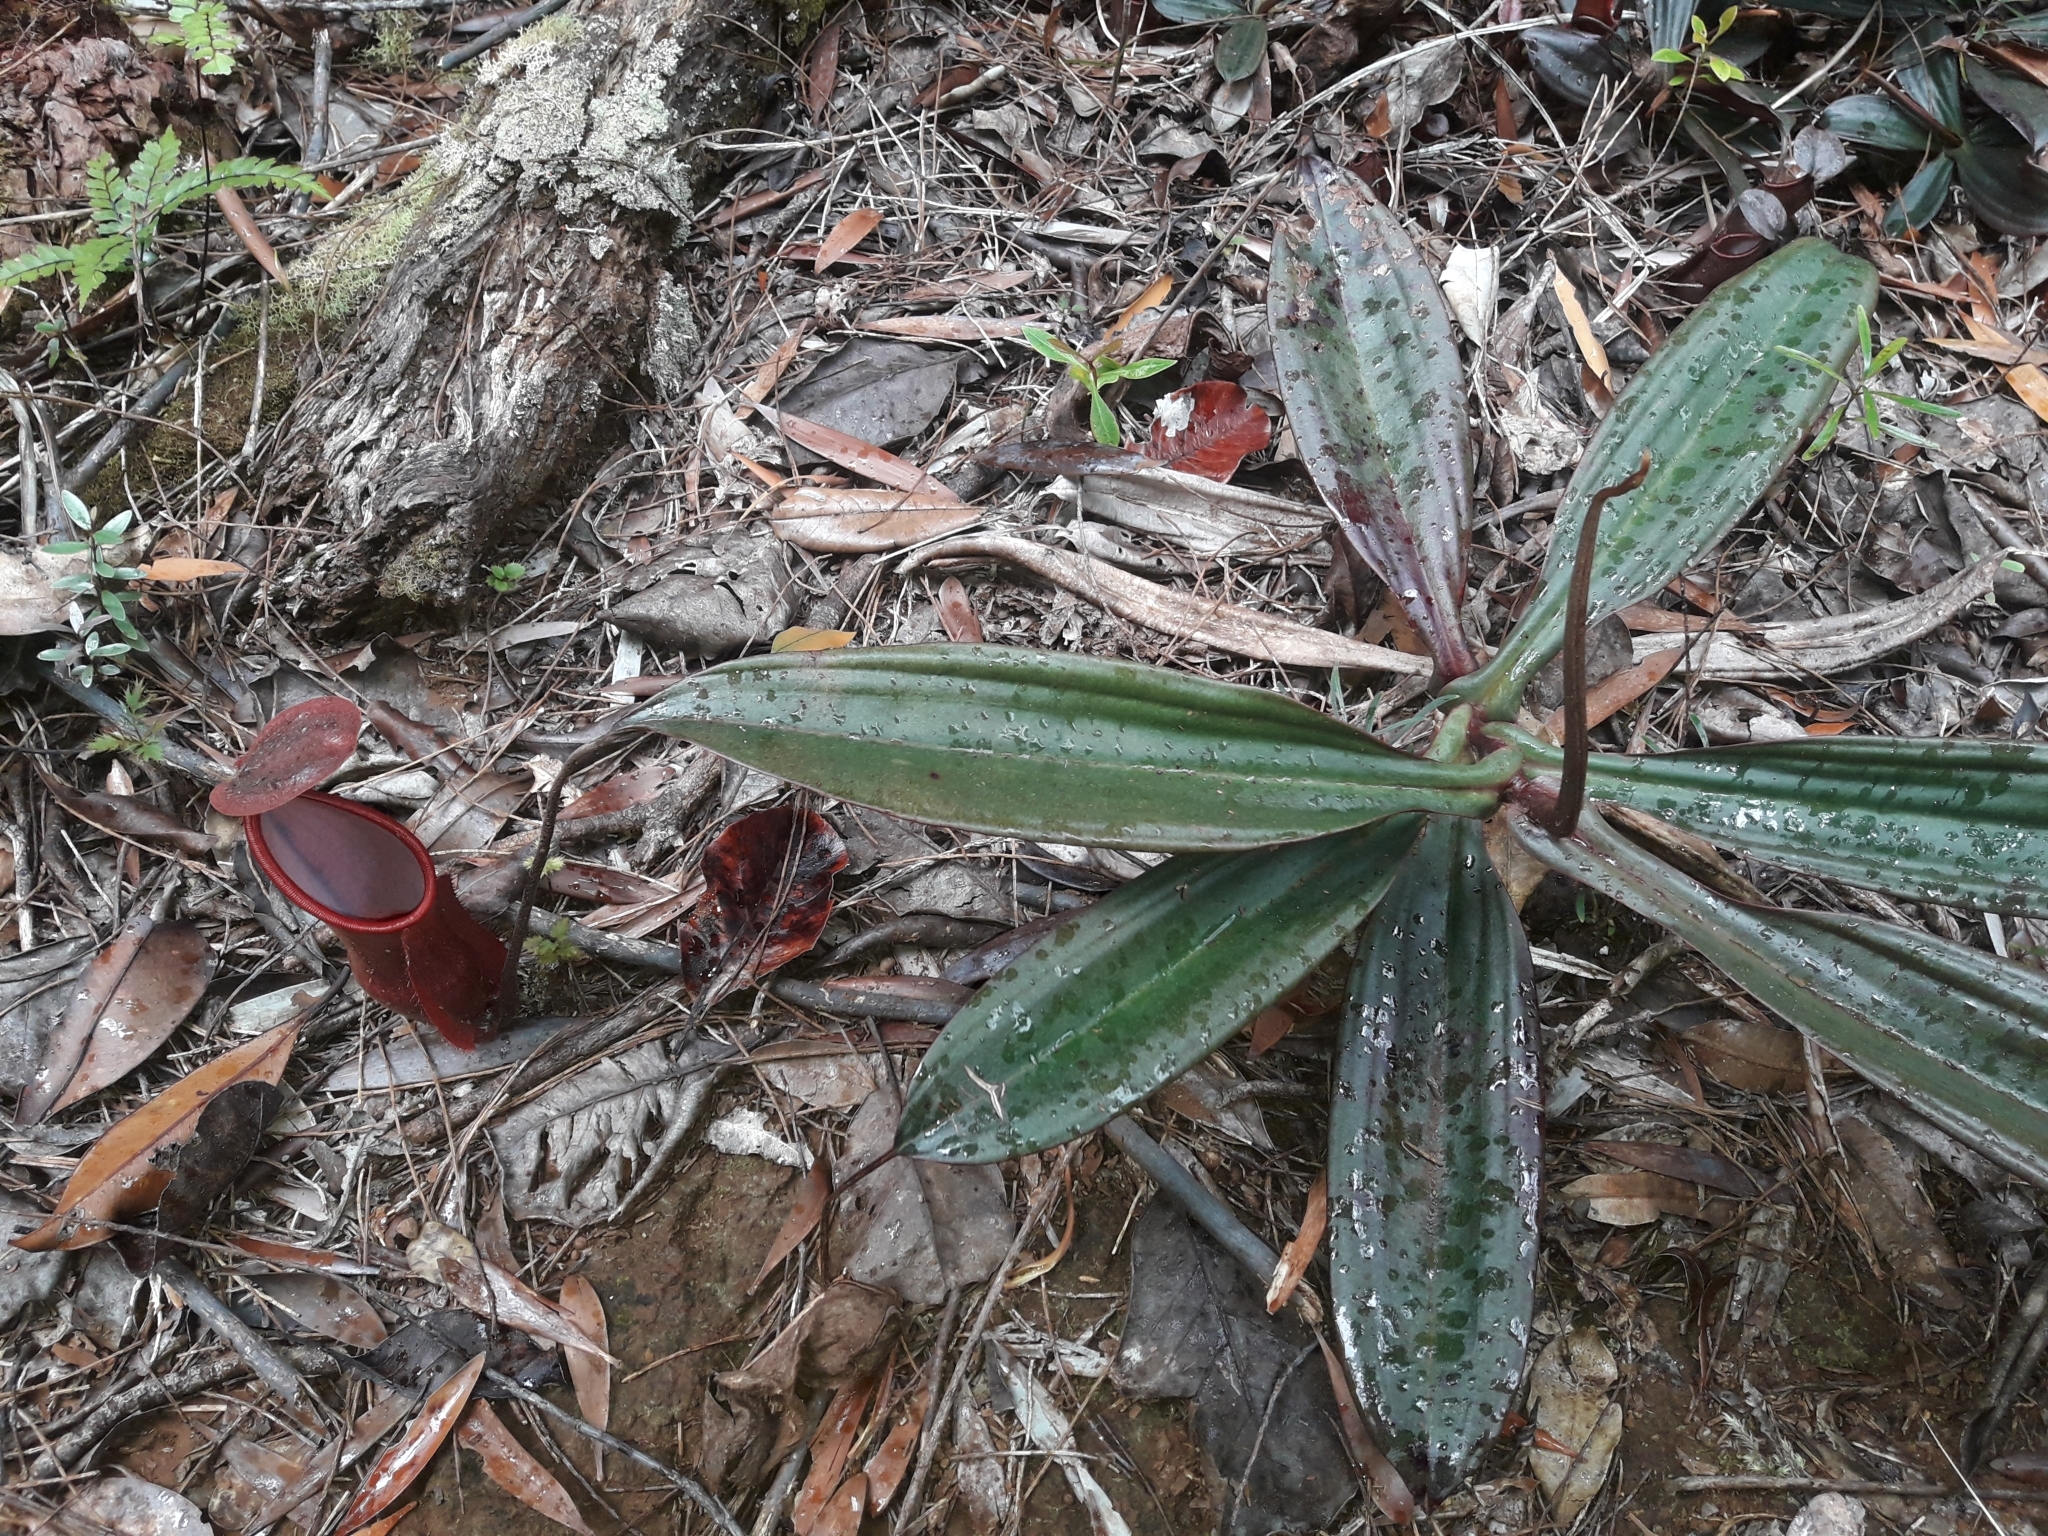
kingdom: Plantae
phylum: Tracheophyta
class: Magnoliopsida
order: Caryophyllales
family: Nepenthaceae
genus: Nepenthes
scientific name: Nepenthes vieillardii
